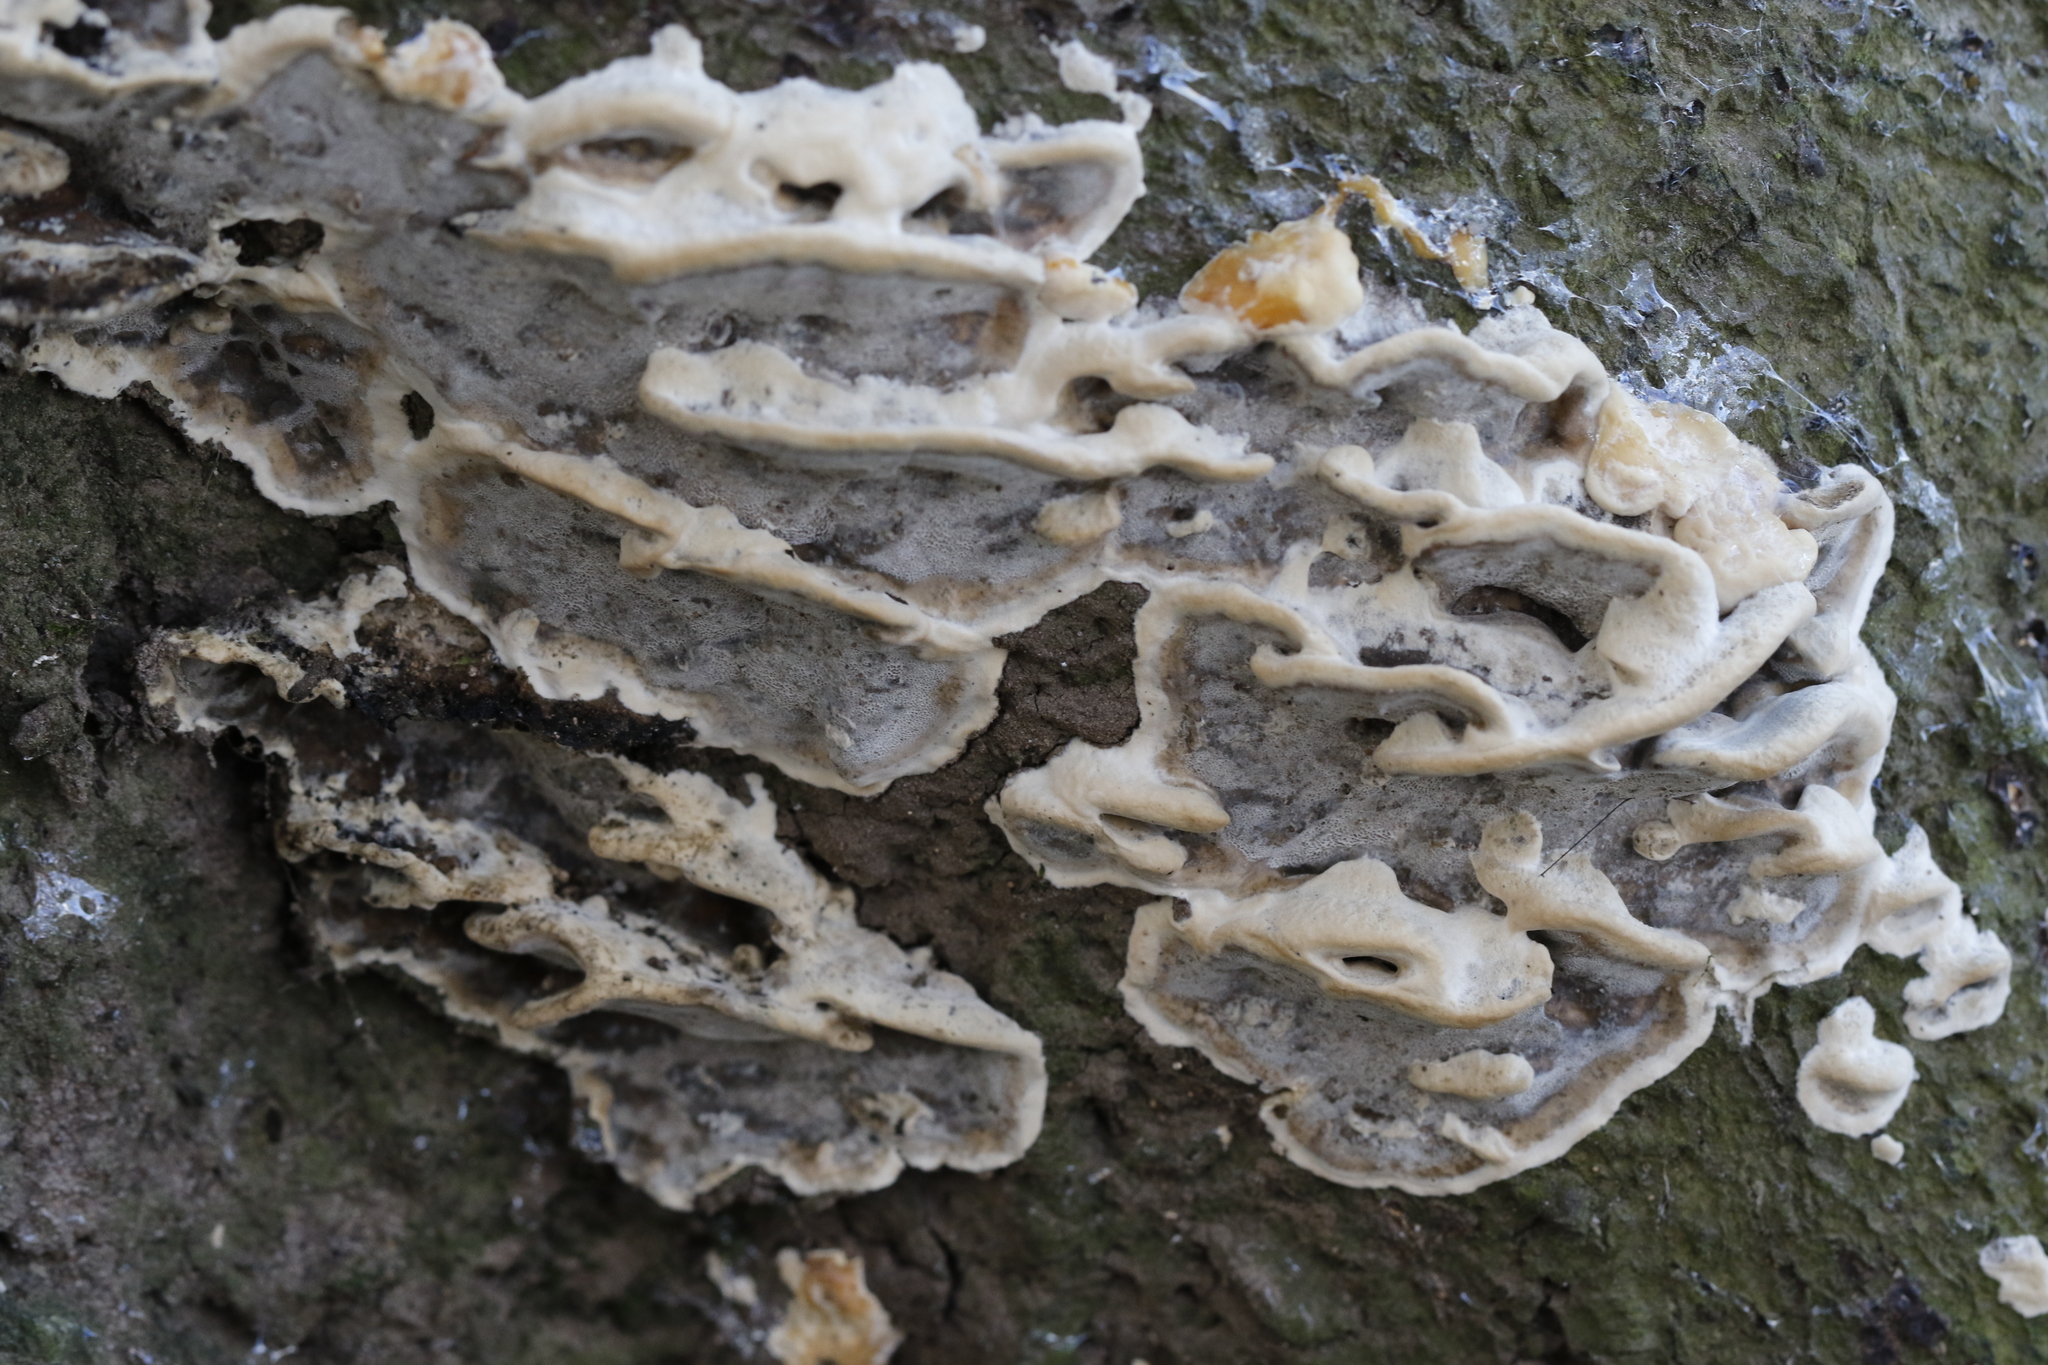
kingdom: Fungi
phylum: Basidiomycota
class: Agaricomycetes
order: Polyporales
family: Phanerochaetaceae
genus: Bjerkandera
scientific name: Bjerkandera adusta
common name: Smoky bracket
